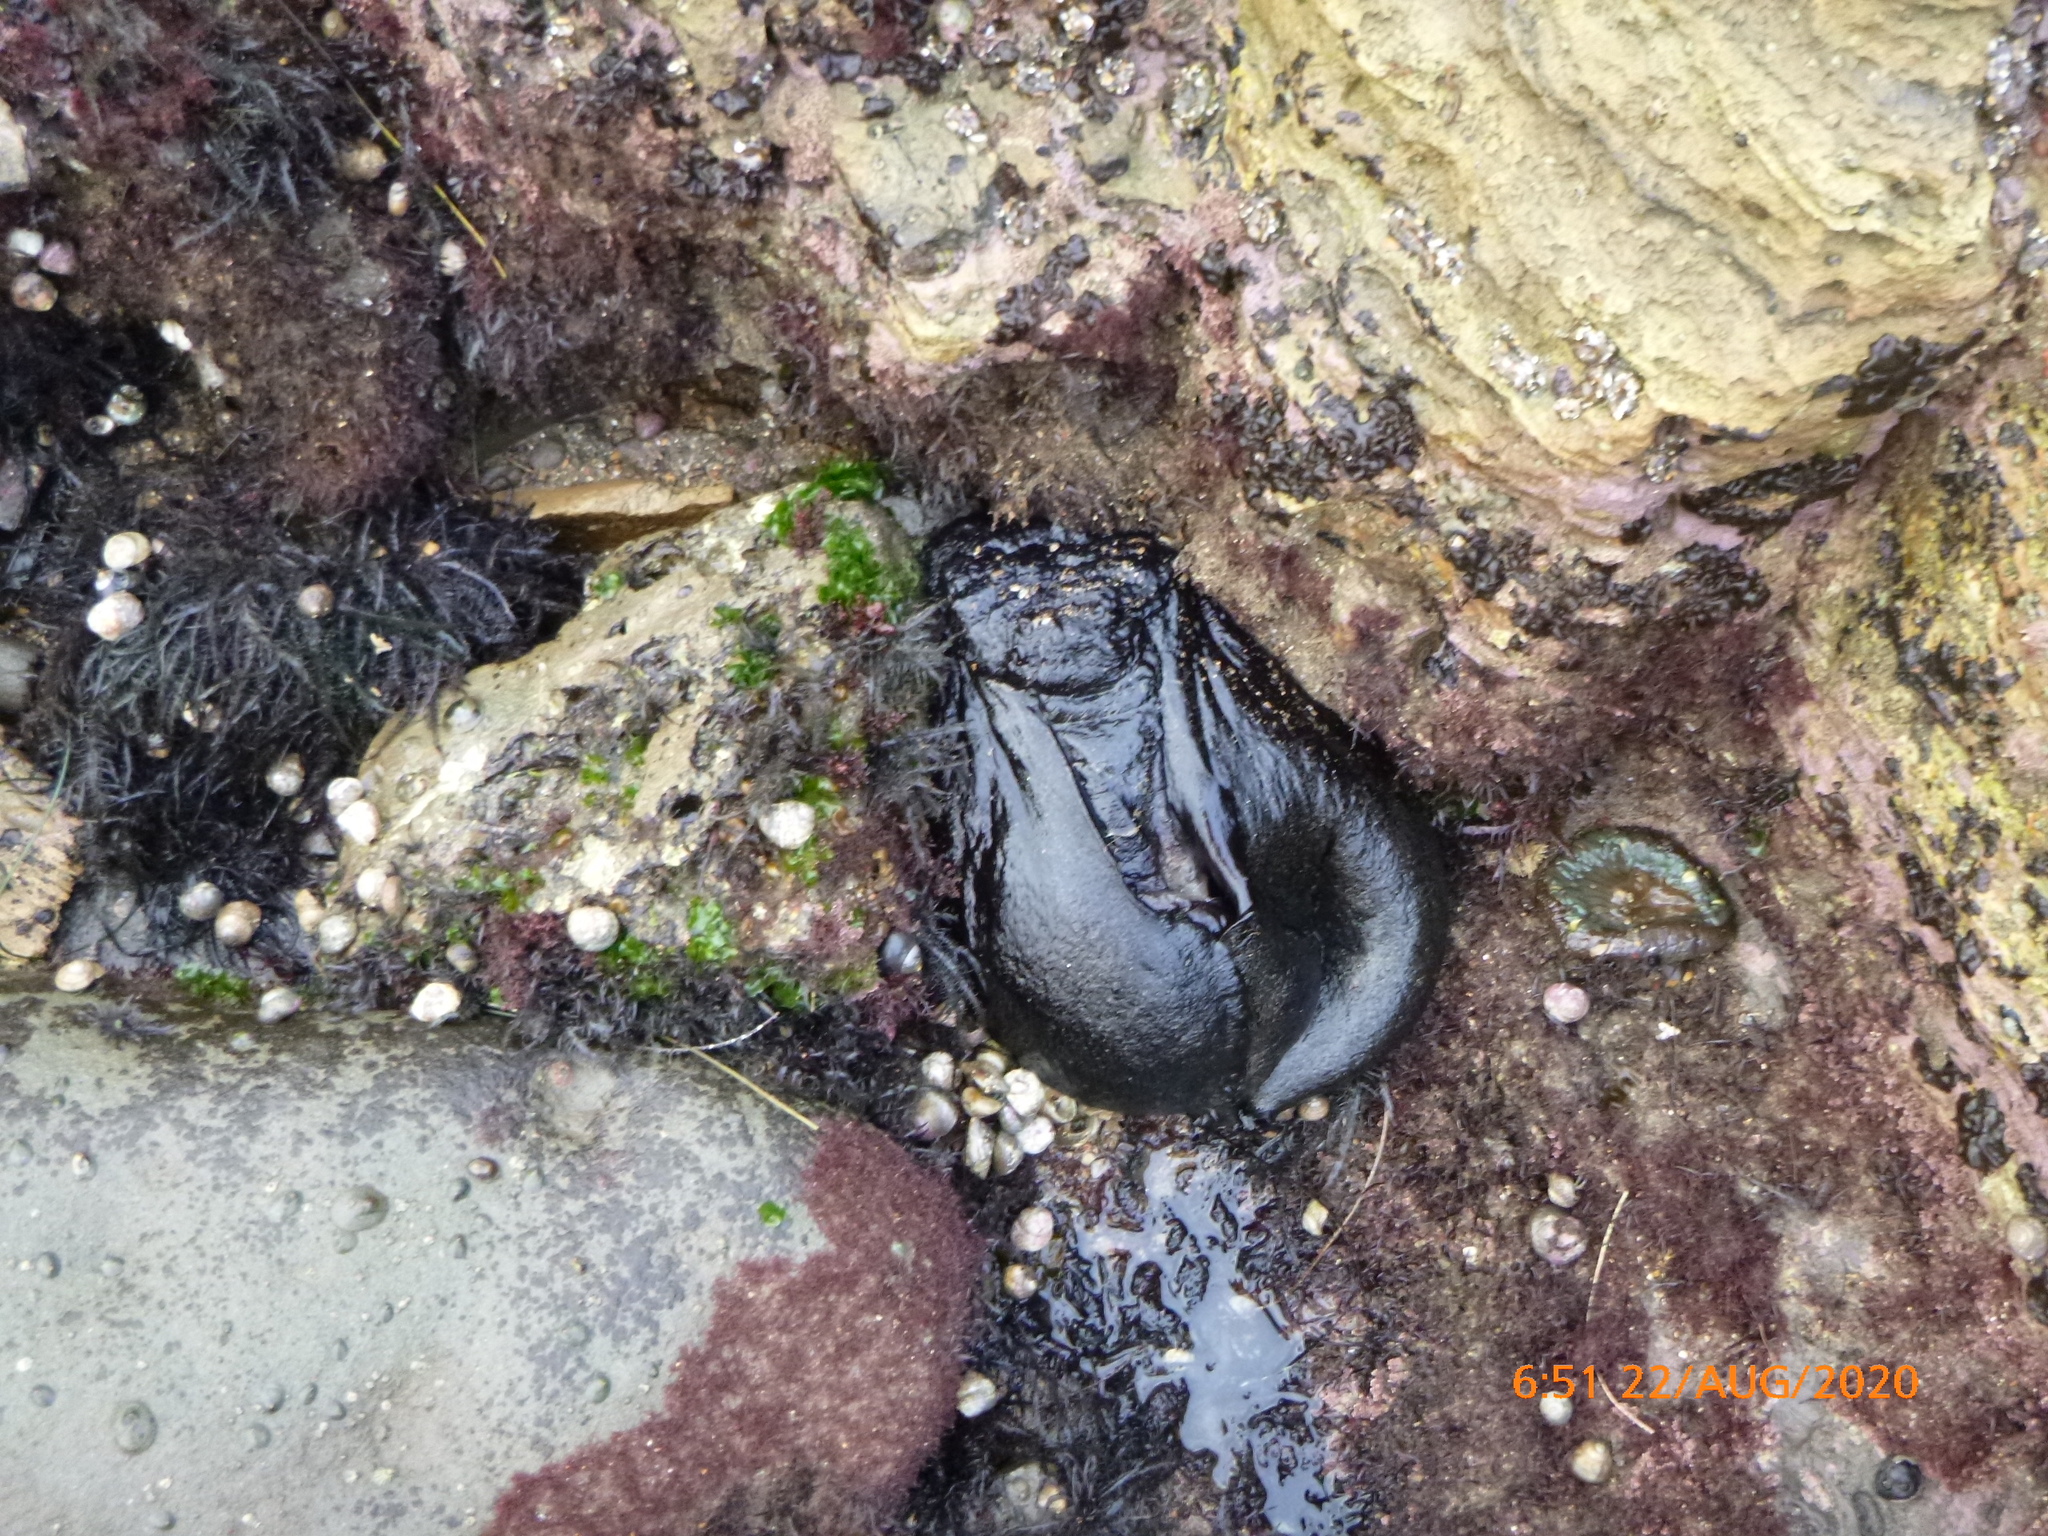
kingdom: Animalia
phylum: Mollusca
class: Gastropoda
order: Aplysiida
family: Aplysiidae
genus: Aplysia
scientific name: Aplysia vaccaria
